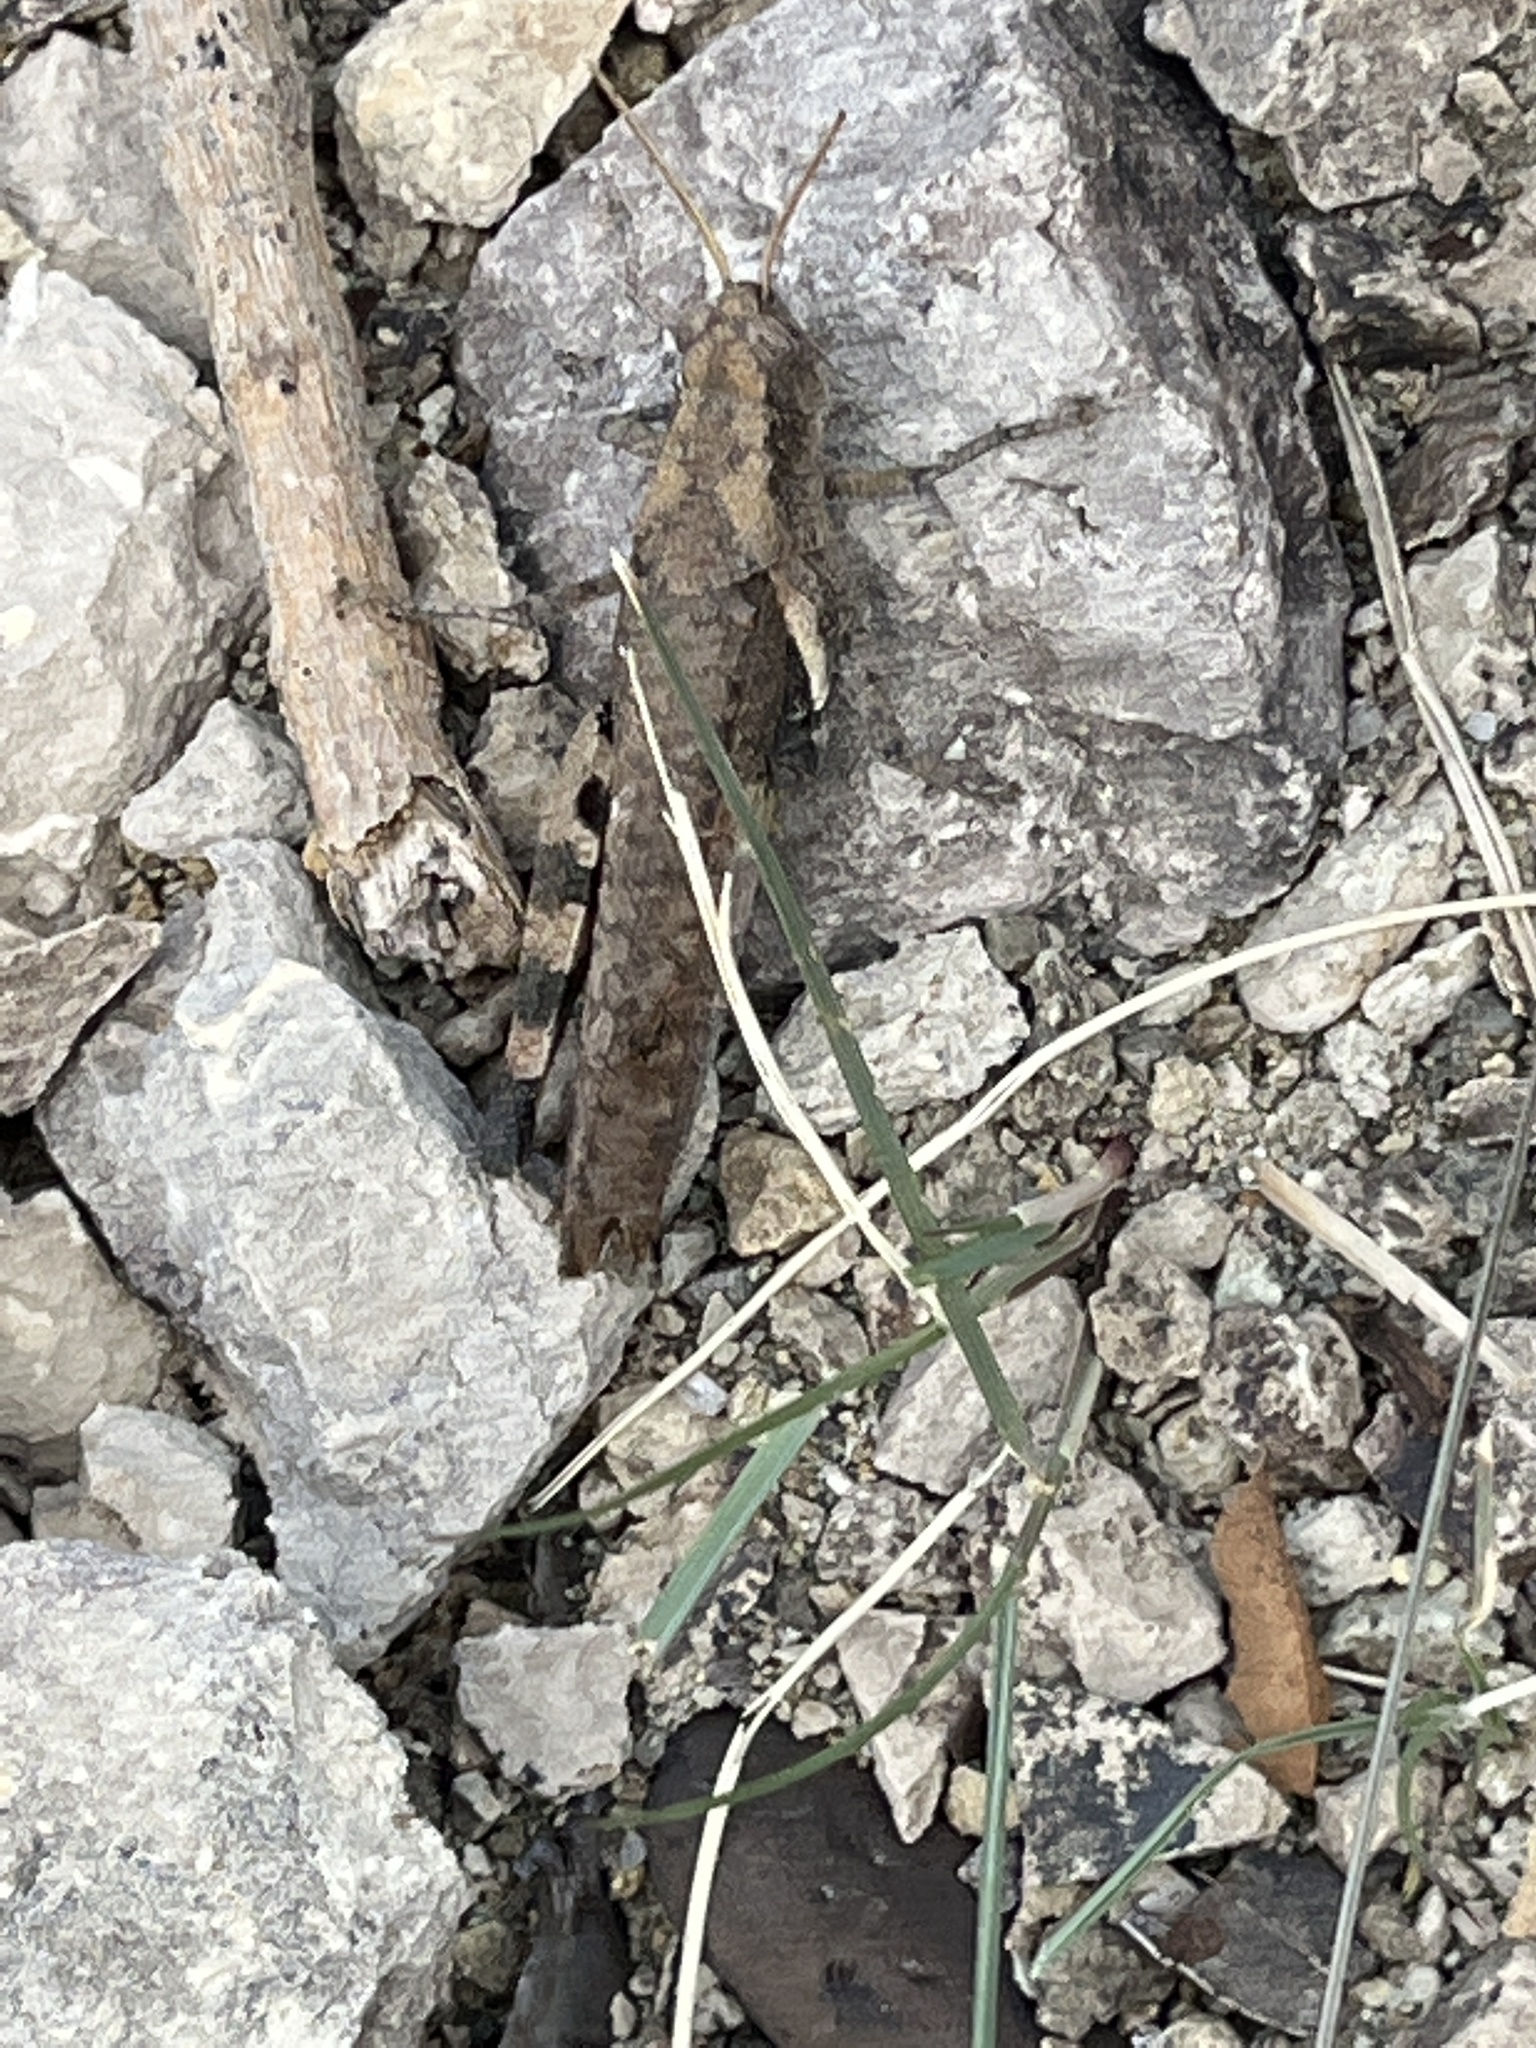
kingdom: Animalia
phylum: Arthropoda
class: Insecta
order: Orthoptera
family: Acrididae
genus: Oxycatantops
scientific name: Oxycatantops spissus
